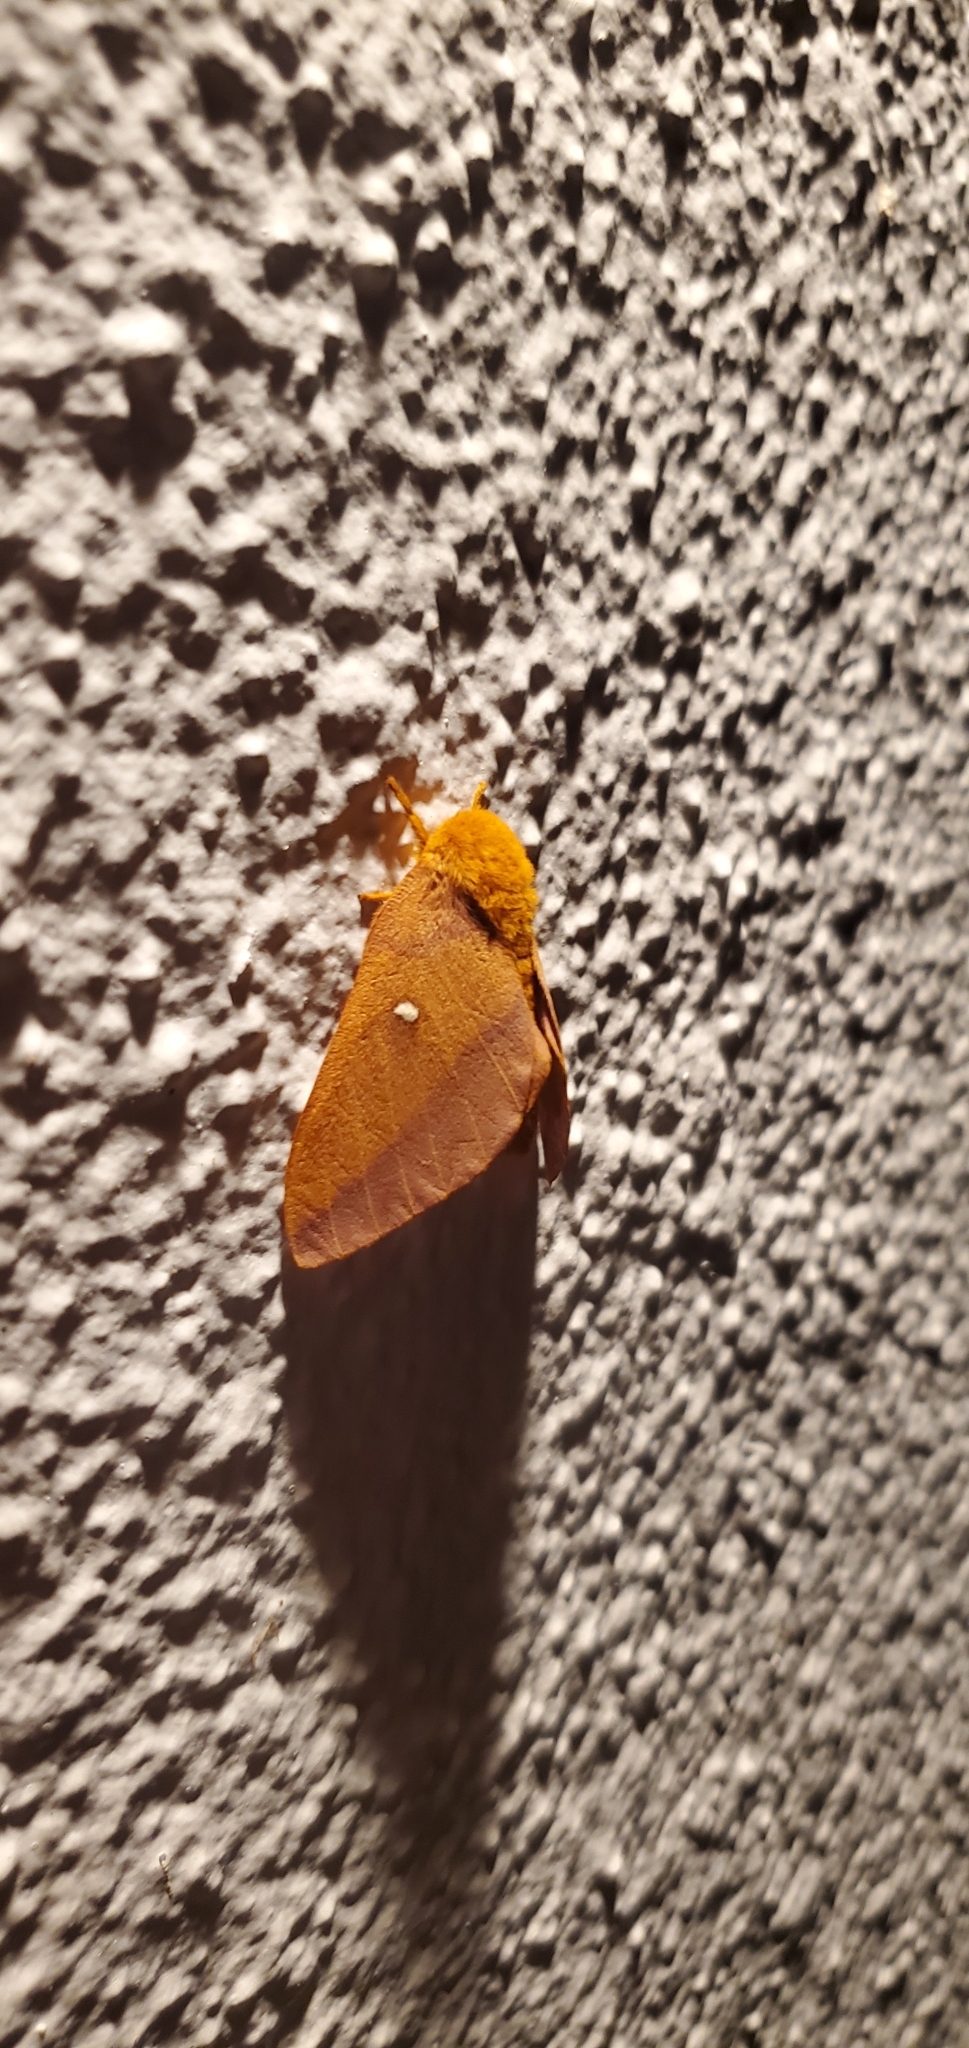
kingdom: Animalia
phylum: Arthropoda
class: Insecta
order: Lepidoptera
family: Saturniidae
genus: Anisota
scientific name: Anisota virginiensis
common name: Pink striped oakworm moth
